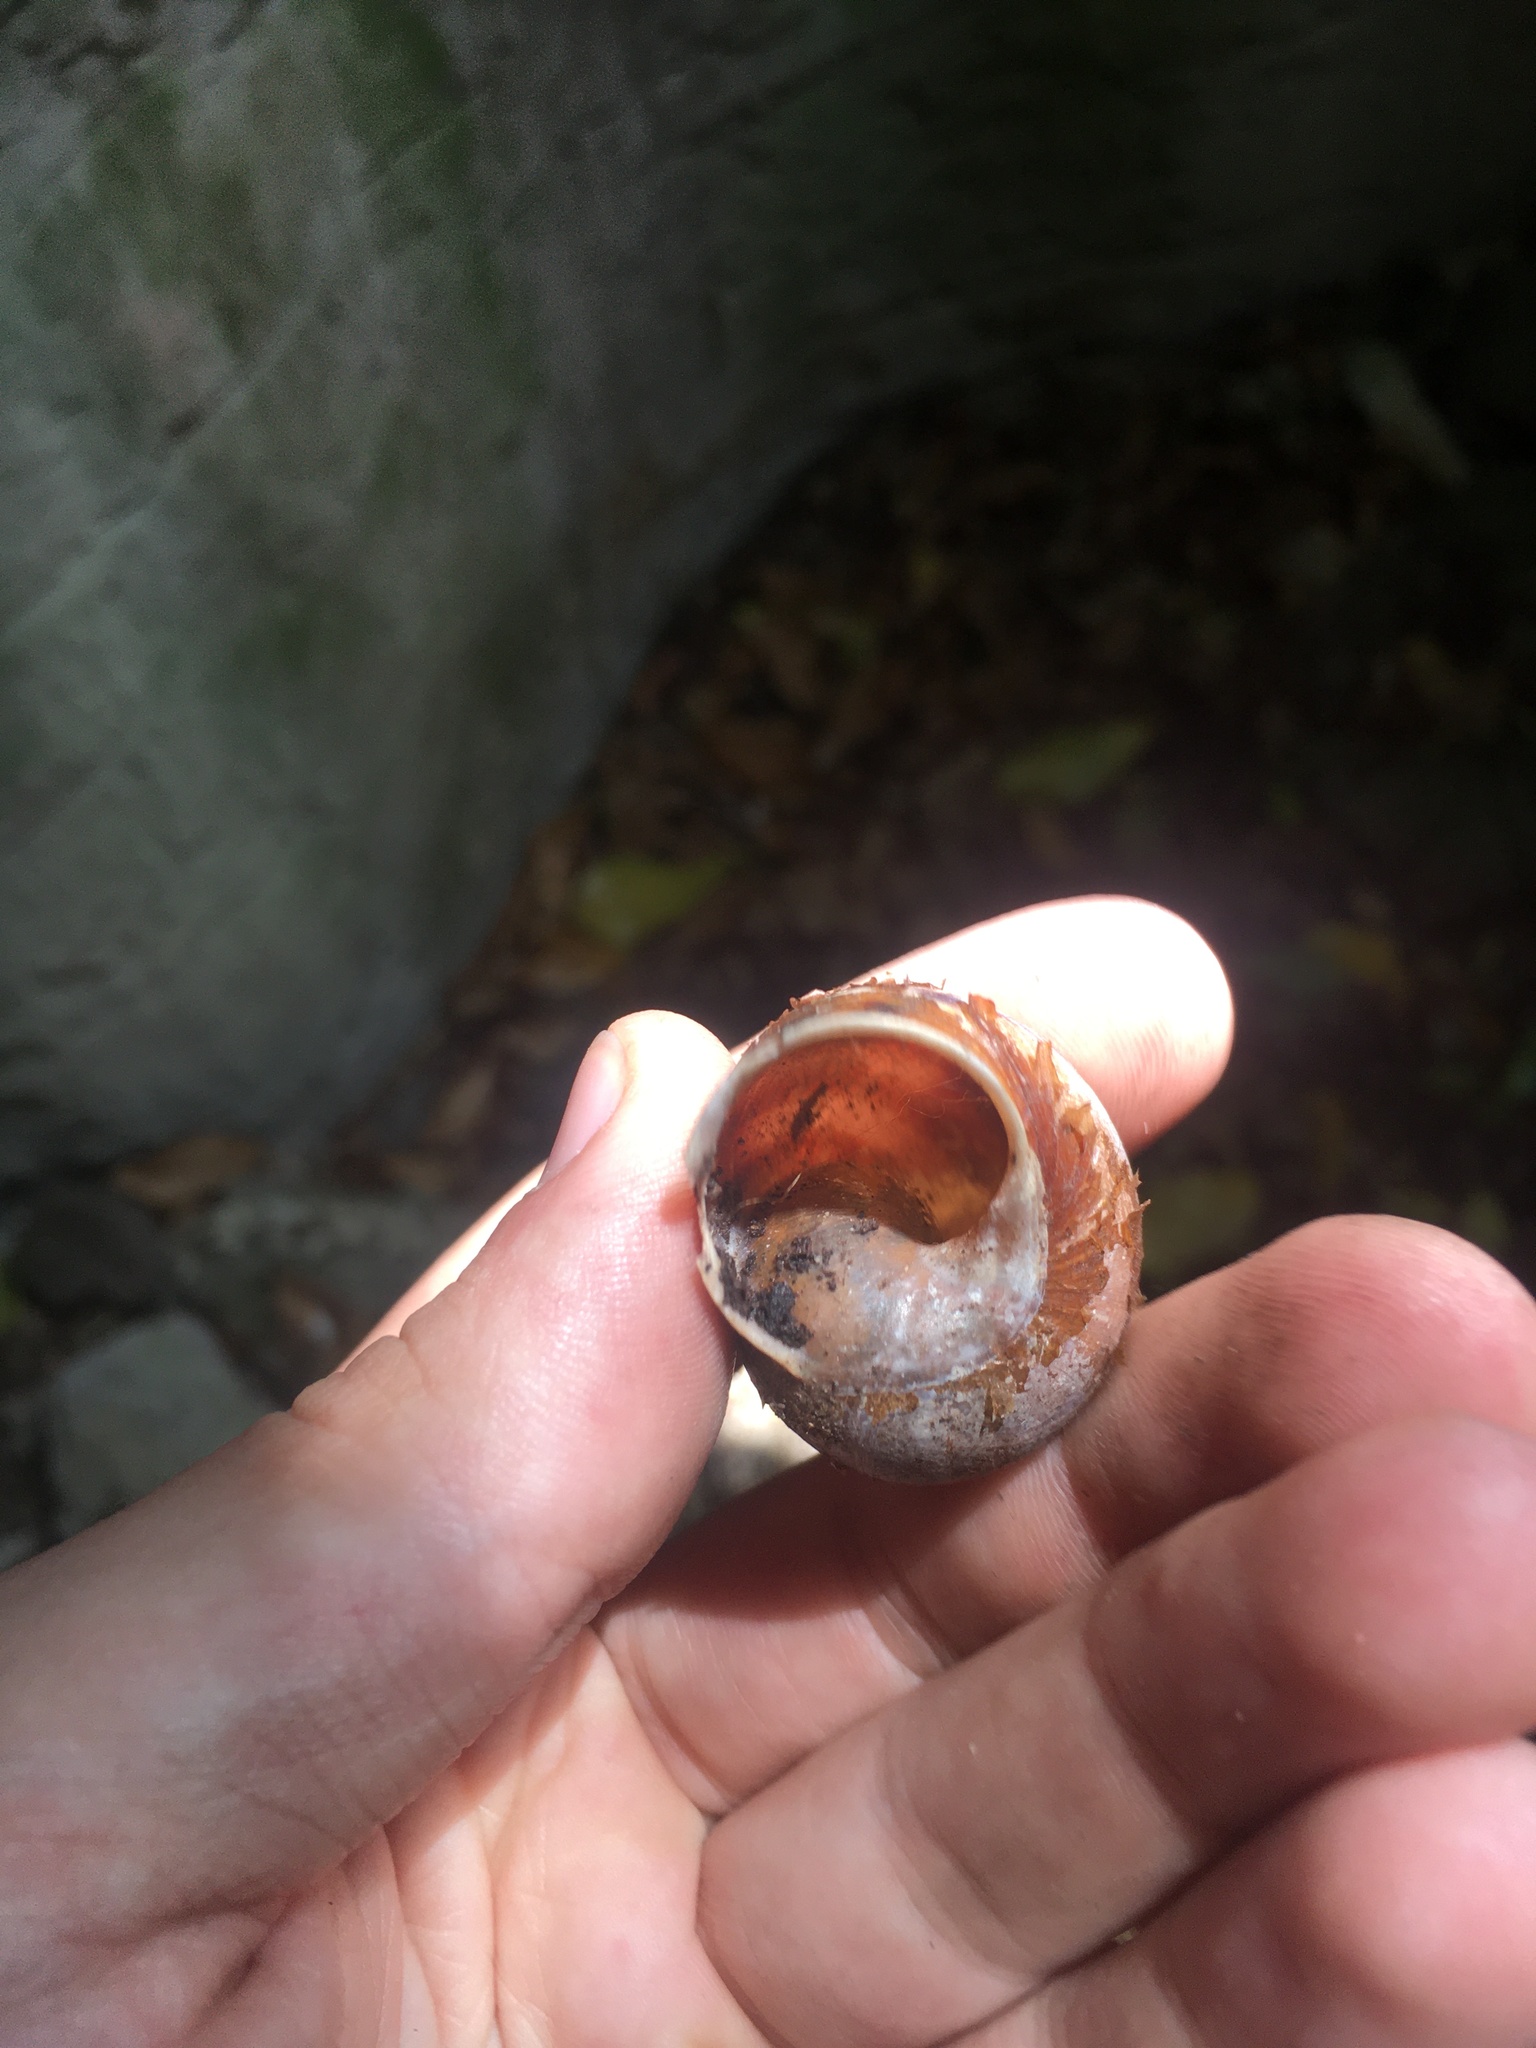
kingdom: Animalia
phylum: Mollusca
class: Gastropoda
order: Stylommatophora
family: Helicidae
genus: Cornu
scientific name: Cornu aspersum
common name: Brown garden snail
